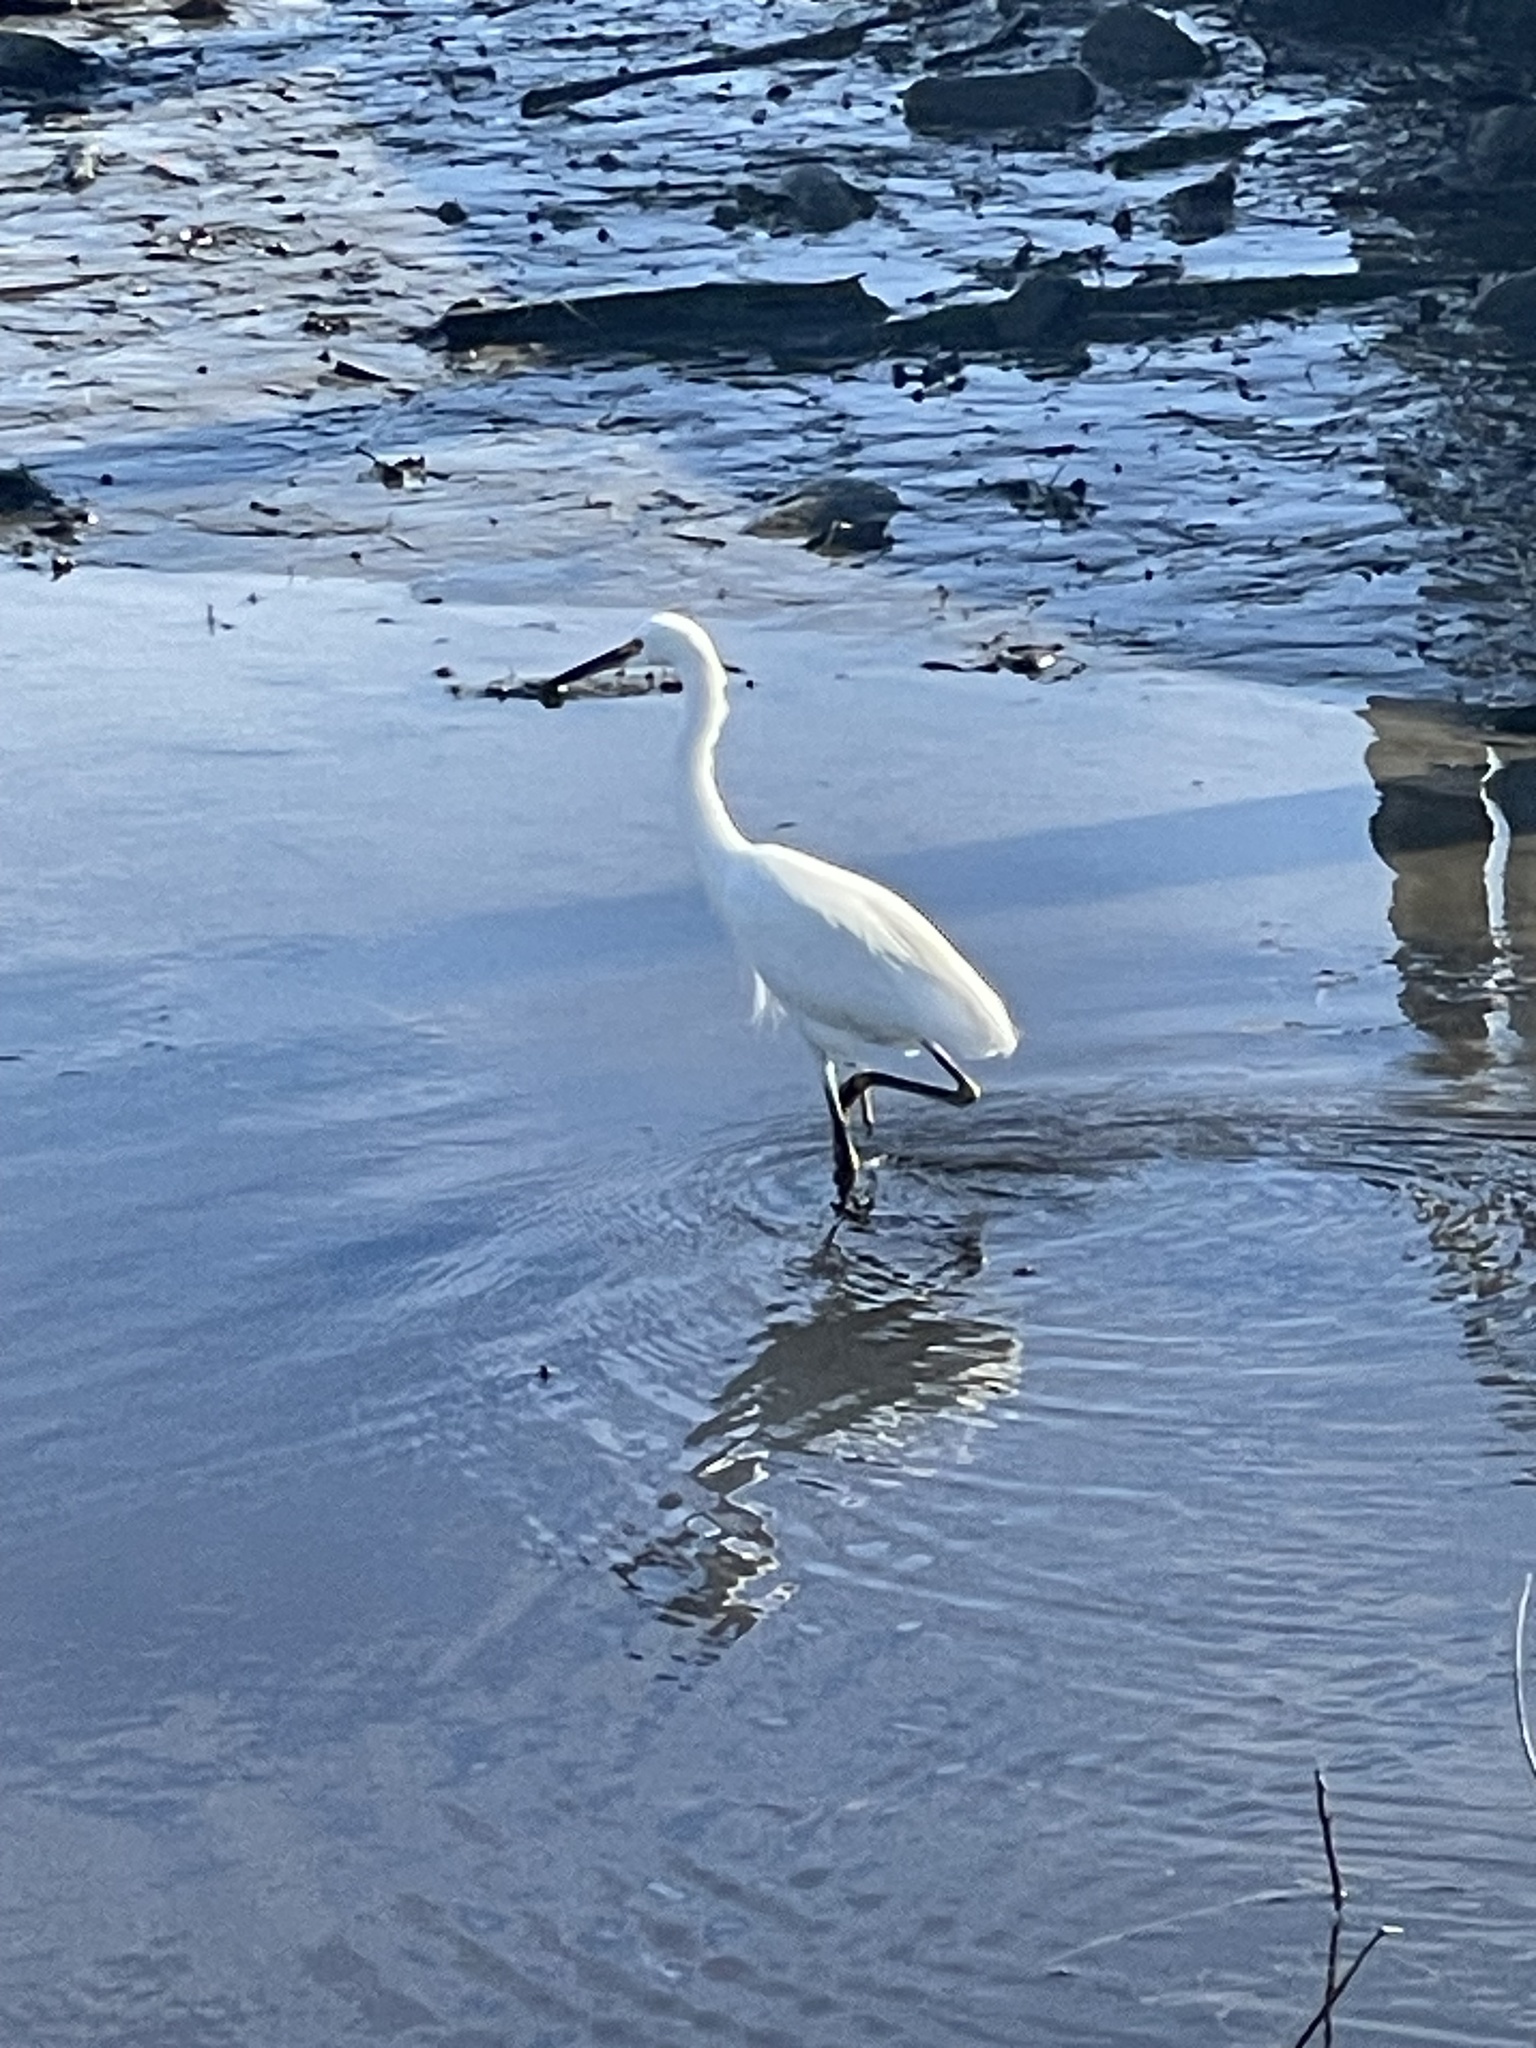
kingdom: Animalia
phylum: Chordata
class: Aves
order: Pelecaniformes
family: Ardeidae
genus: Egretta
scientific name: Egretta thula
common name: Snowy egret
